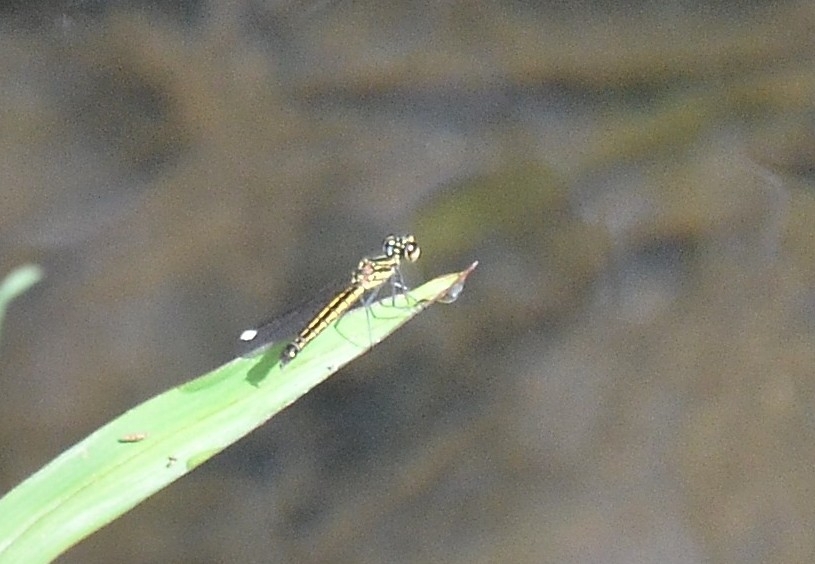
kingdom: Animalia
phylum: Arthropoda
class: Insecta
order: Odonata
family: Chlorocyphidae
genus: Libellago
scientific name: Libellago indica
